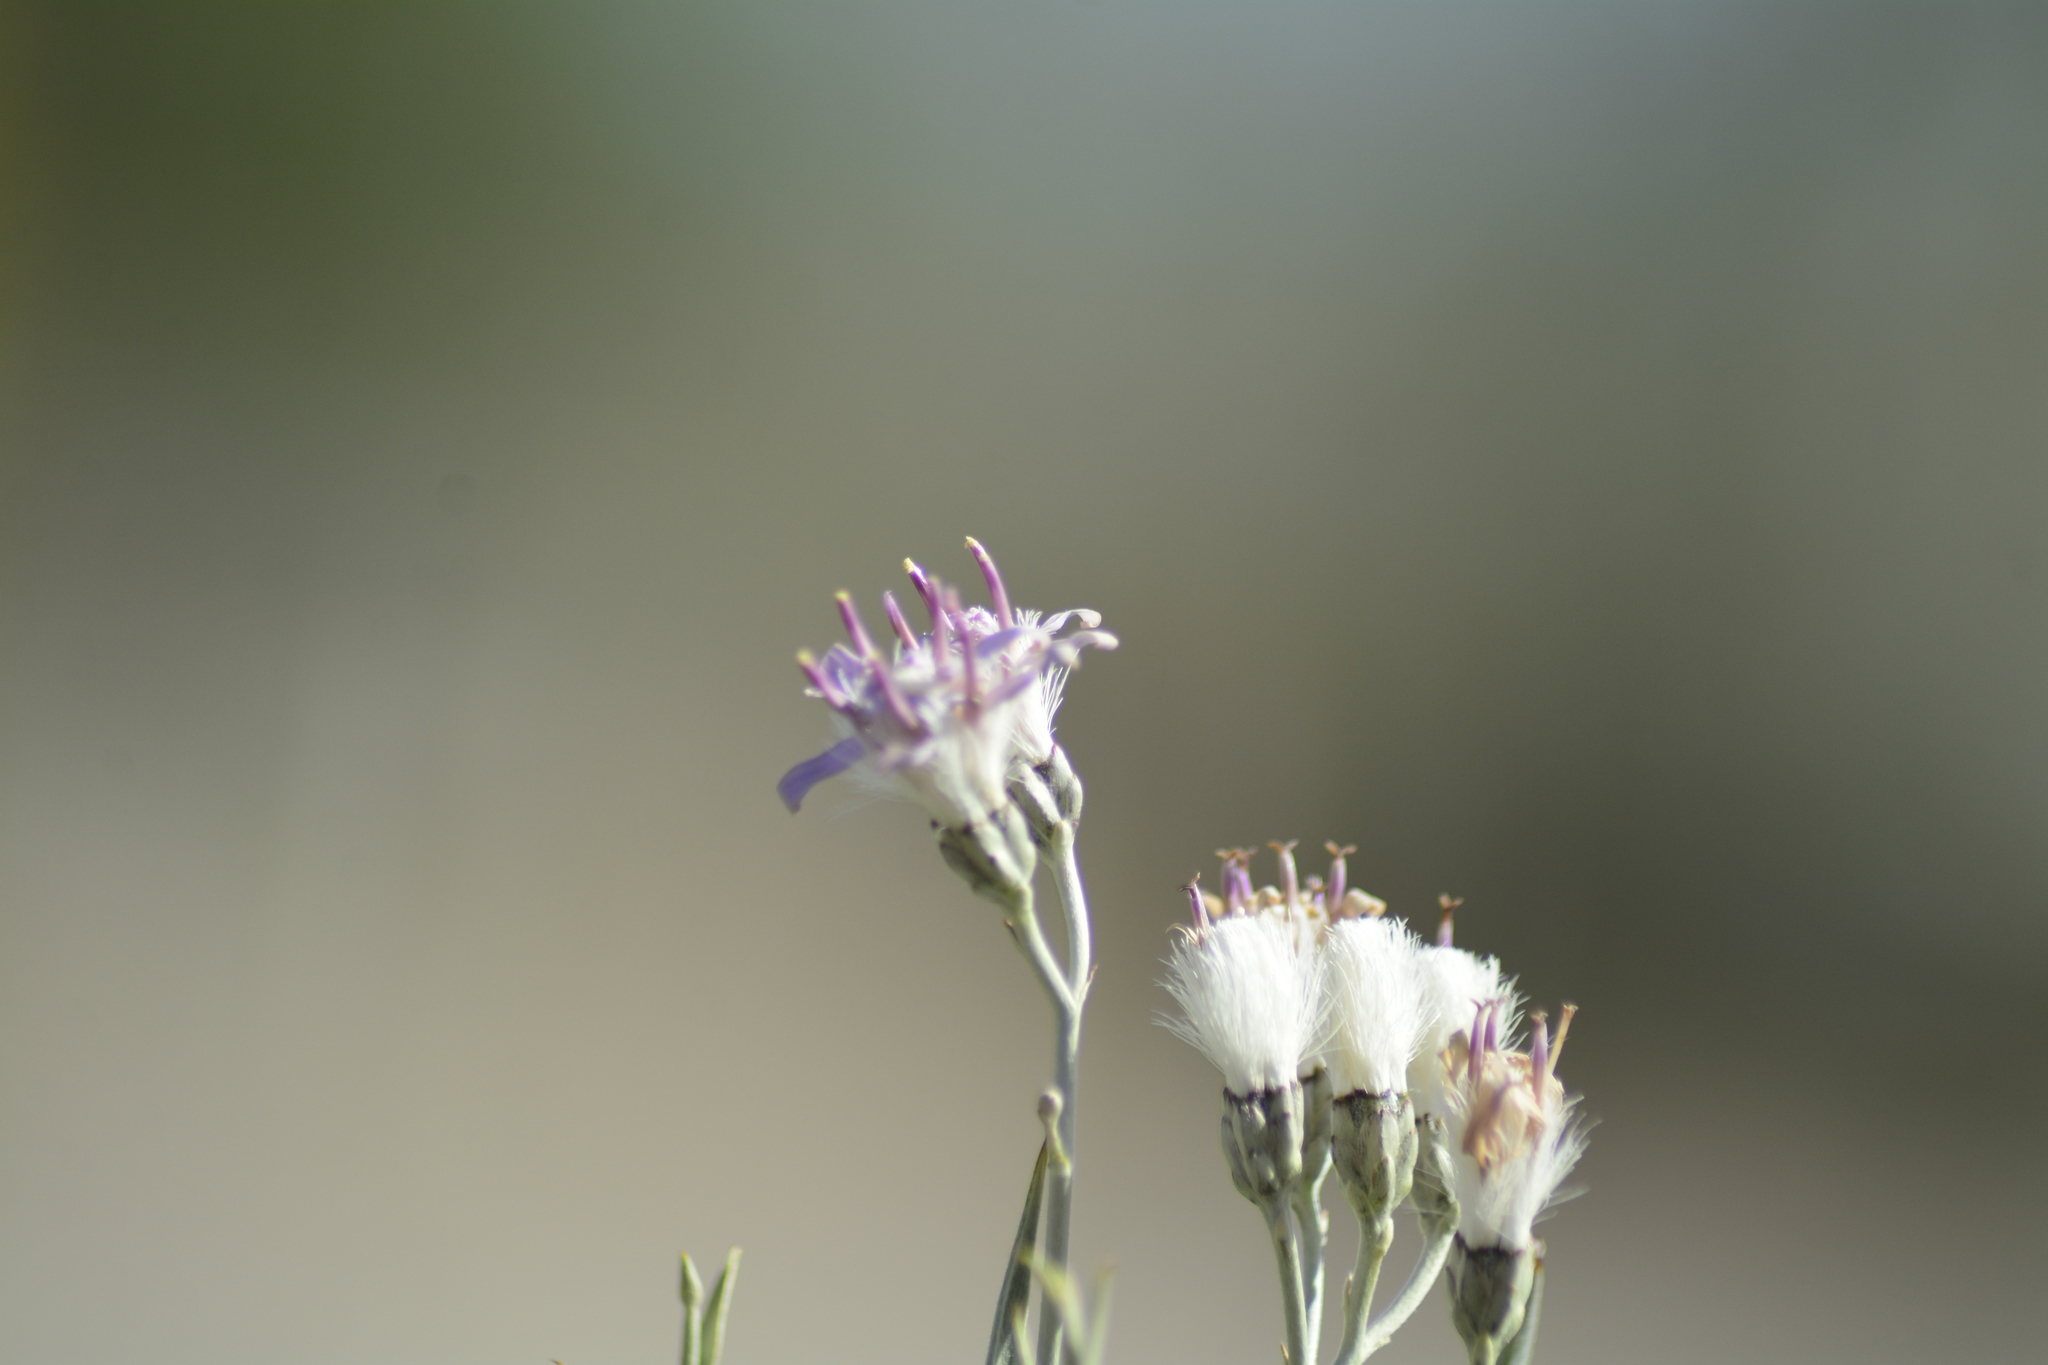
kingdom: Plantae
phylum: Tracheophyta
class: Magnoliopsida
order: Asterales
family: Asteraceae
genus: Hyalis
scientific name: Hyalis argentea
